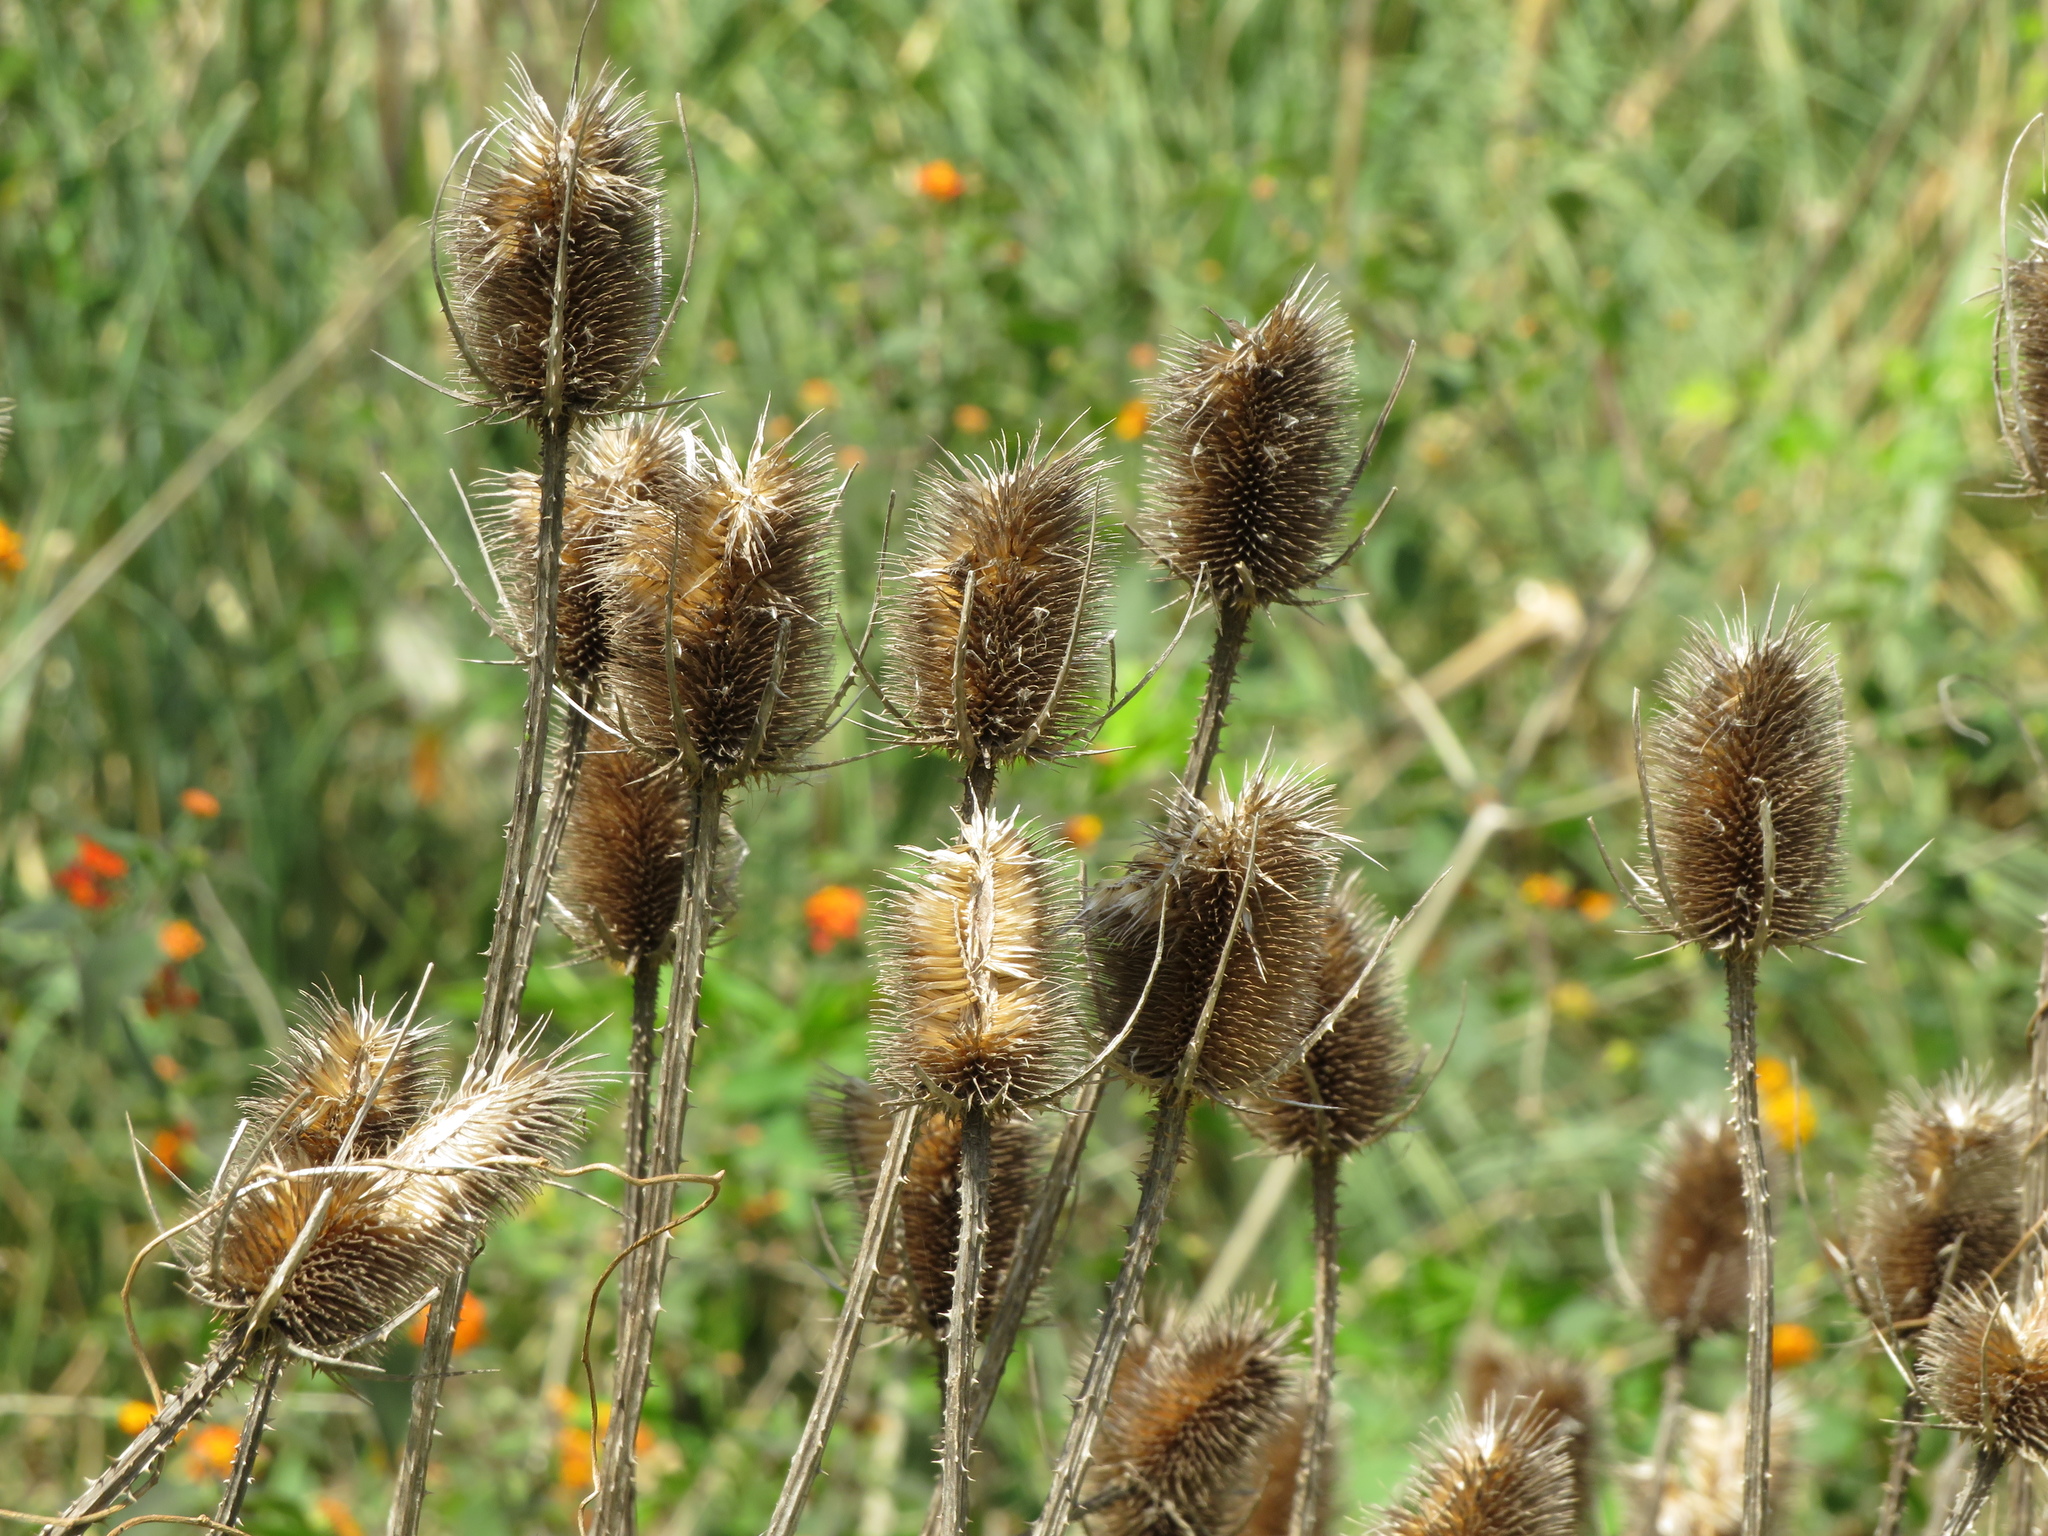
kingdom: Plantae
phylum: Tracheophyta
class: Magnoliopsida
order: Dipsacales
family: Caprifoliaceae
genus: Dipsacus
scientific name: Dipsacus fullonum
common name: Teasel
